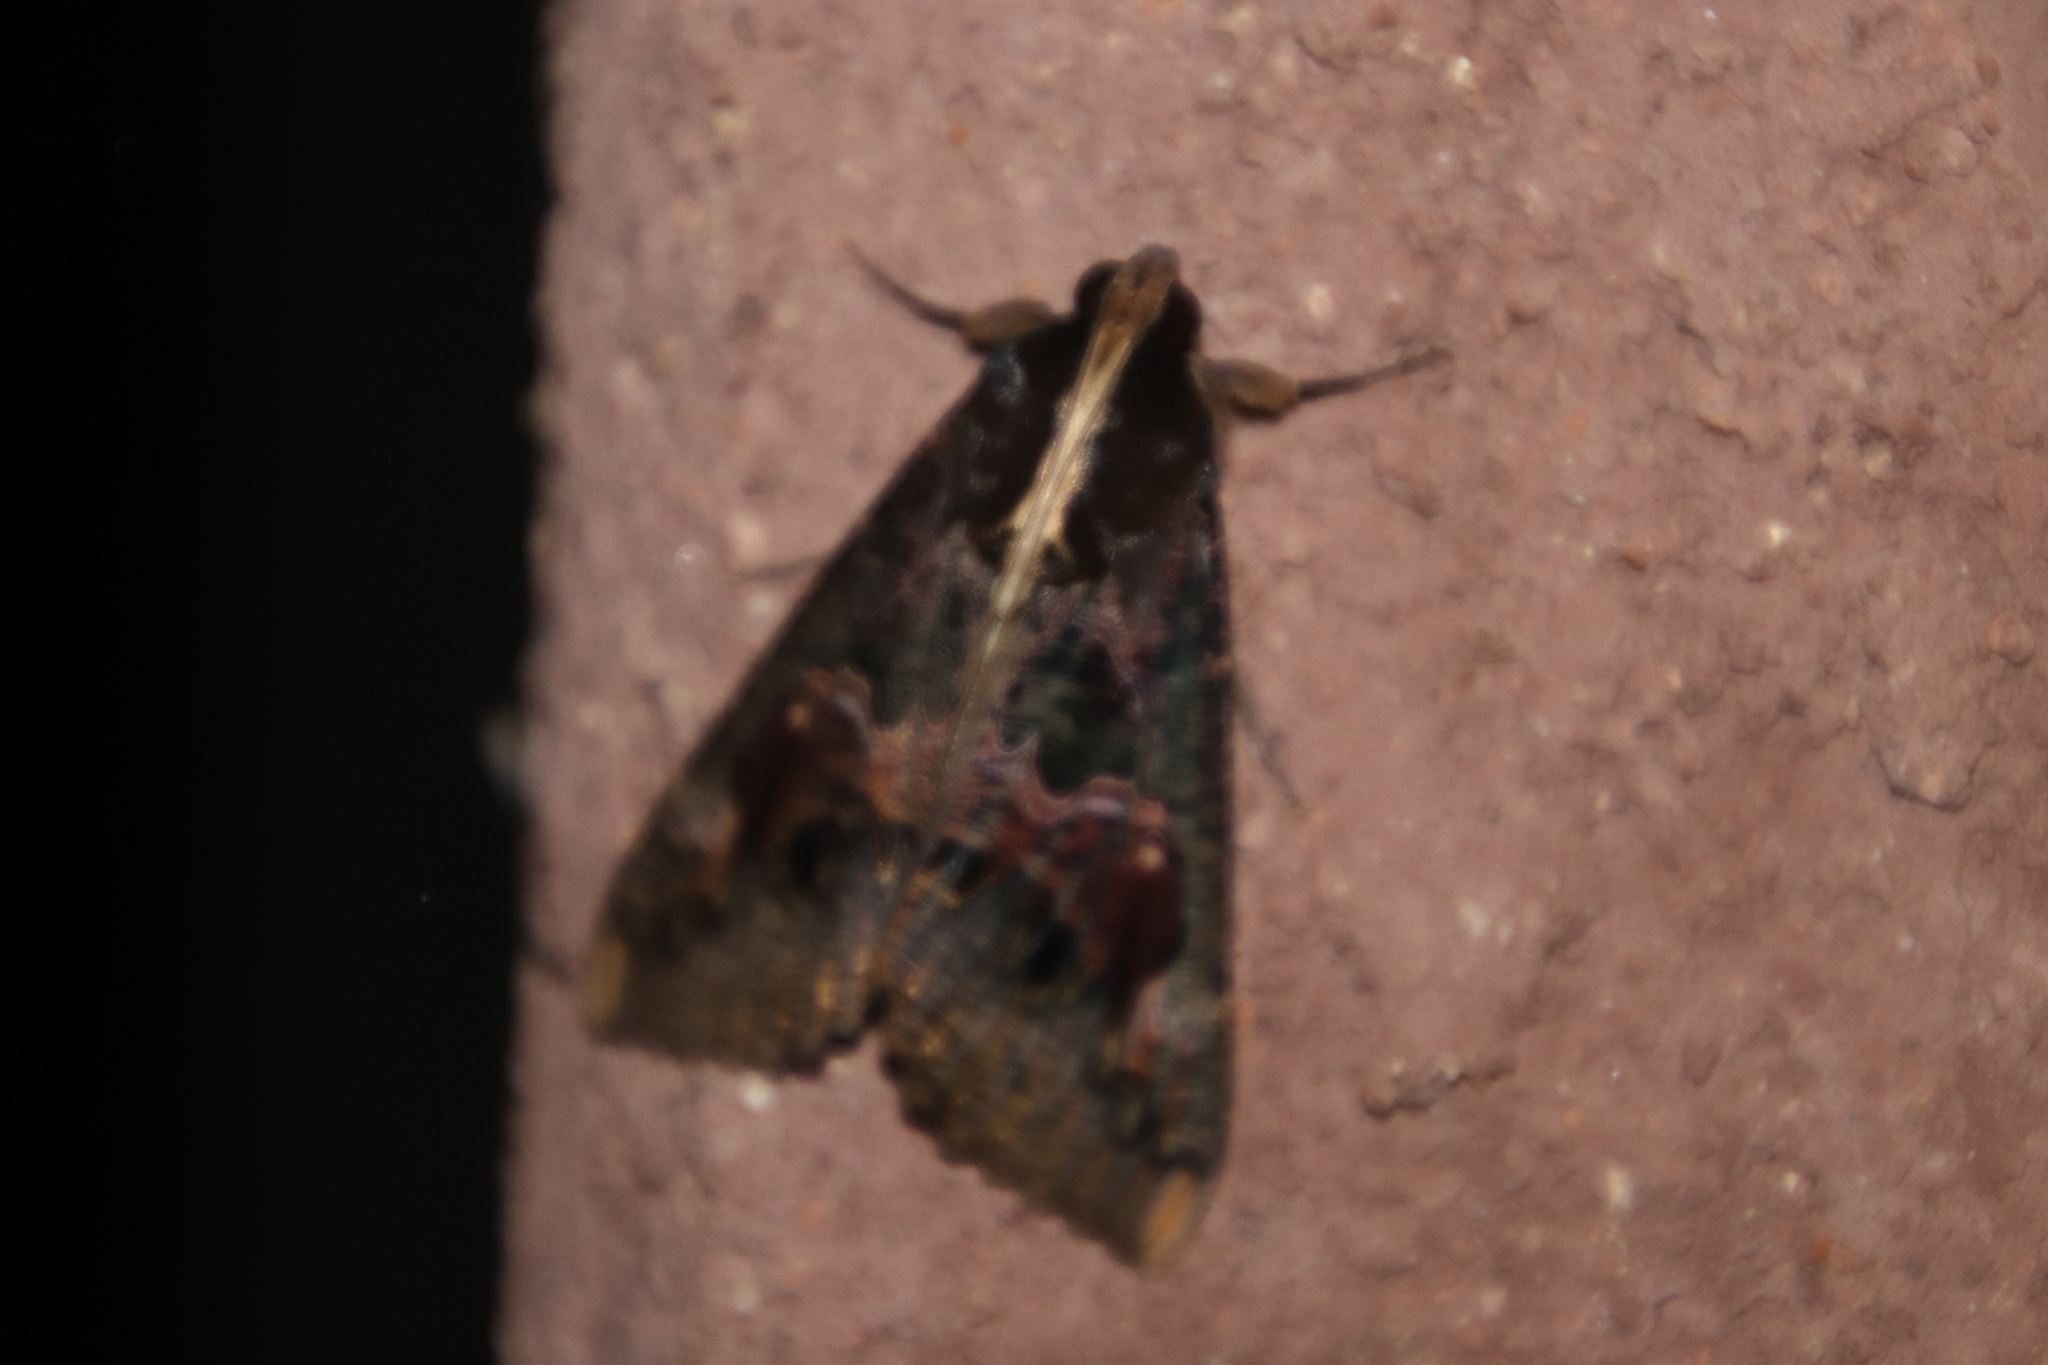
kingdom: Animalia
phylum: Arthropoda
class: Insecta
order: Lepidoptera
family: Erebidae
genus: Sphingomorpha
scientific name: Sphingomorpha chlorea
